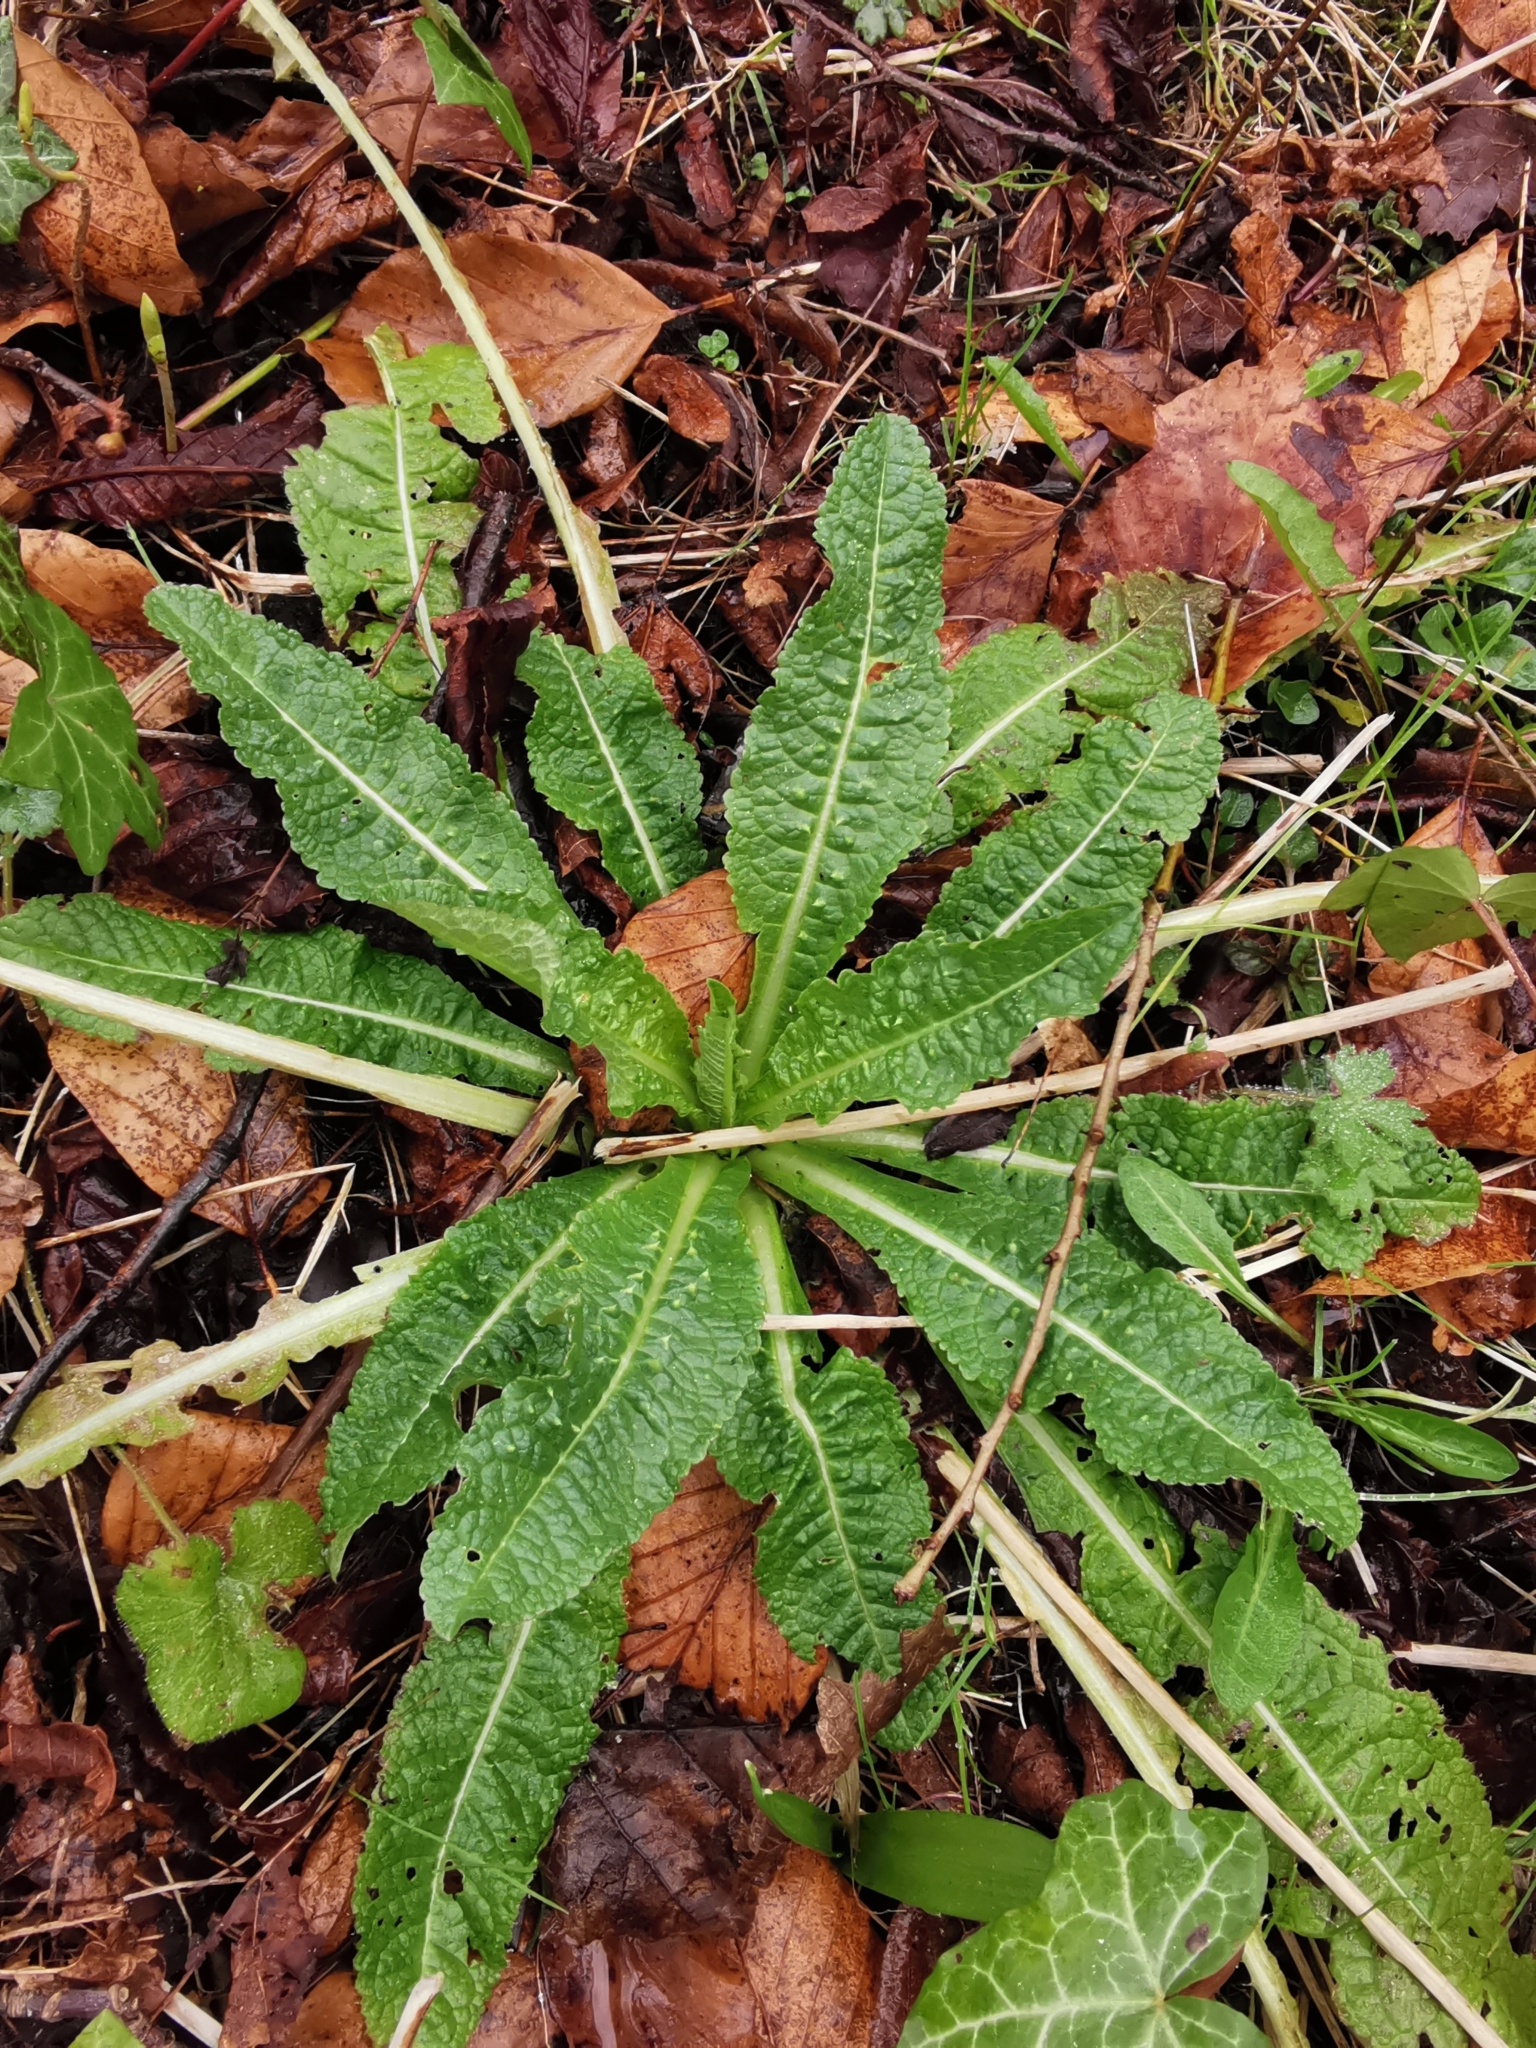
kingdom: Plantae
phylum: Tracheophyta
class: Magnoliopsida
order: Dipsacales
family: Caprifoliaceae
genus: Dipsacus
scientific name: Dipsacus fullonum
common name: Teasel
